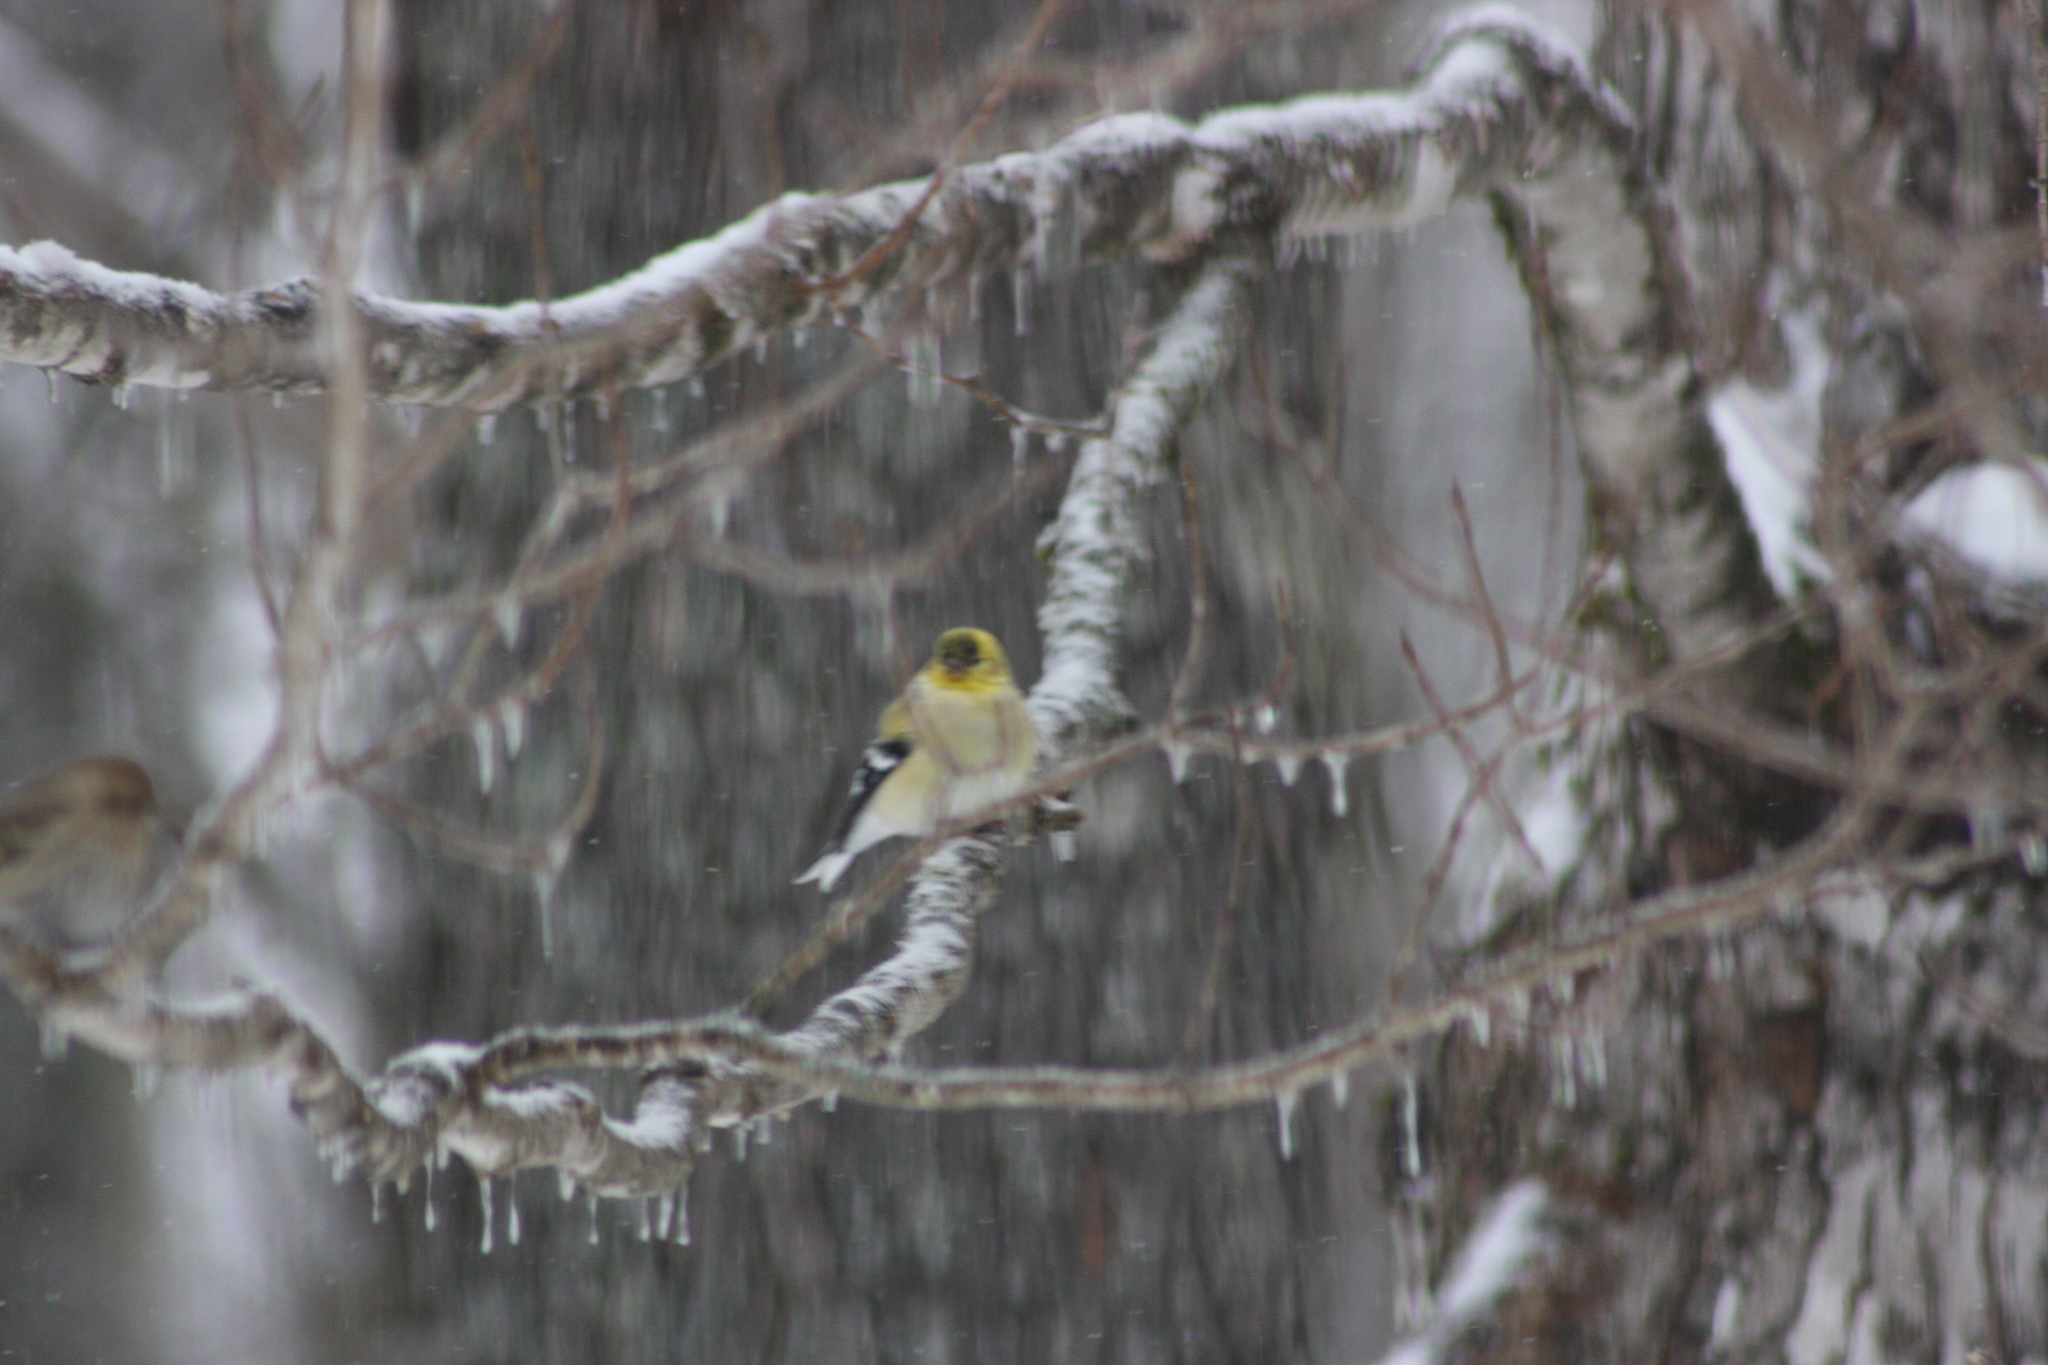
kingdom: Animalia
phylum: Chordata
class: Aves
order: Passeriformes
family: Fringillidae
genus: Spinus
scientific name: Spinus tristis
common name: American goldfinch
